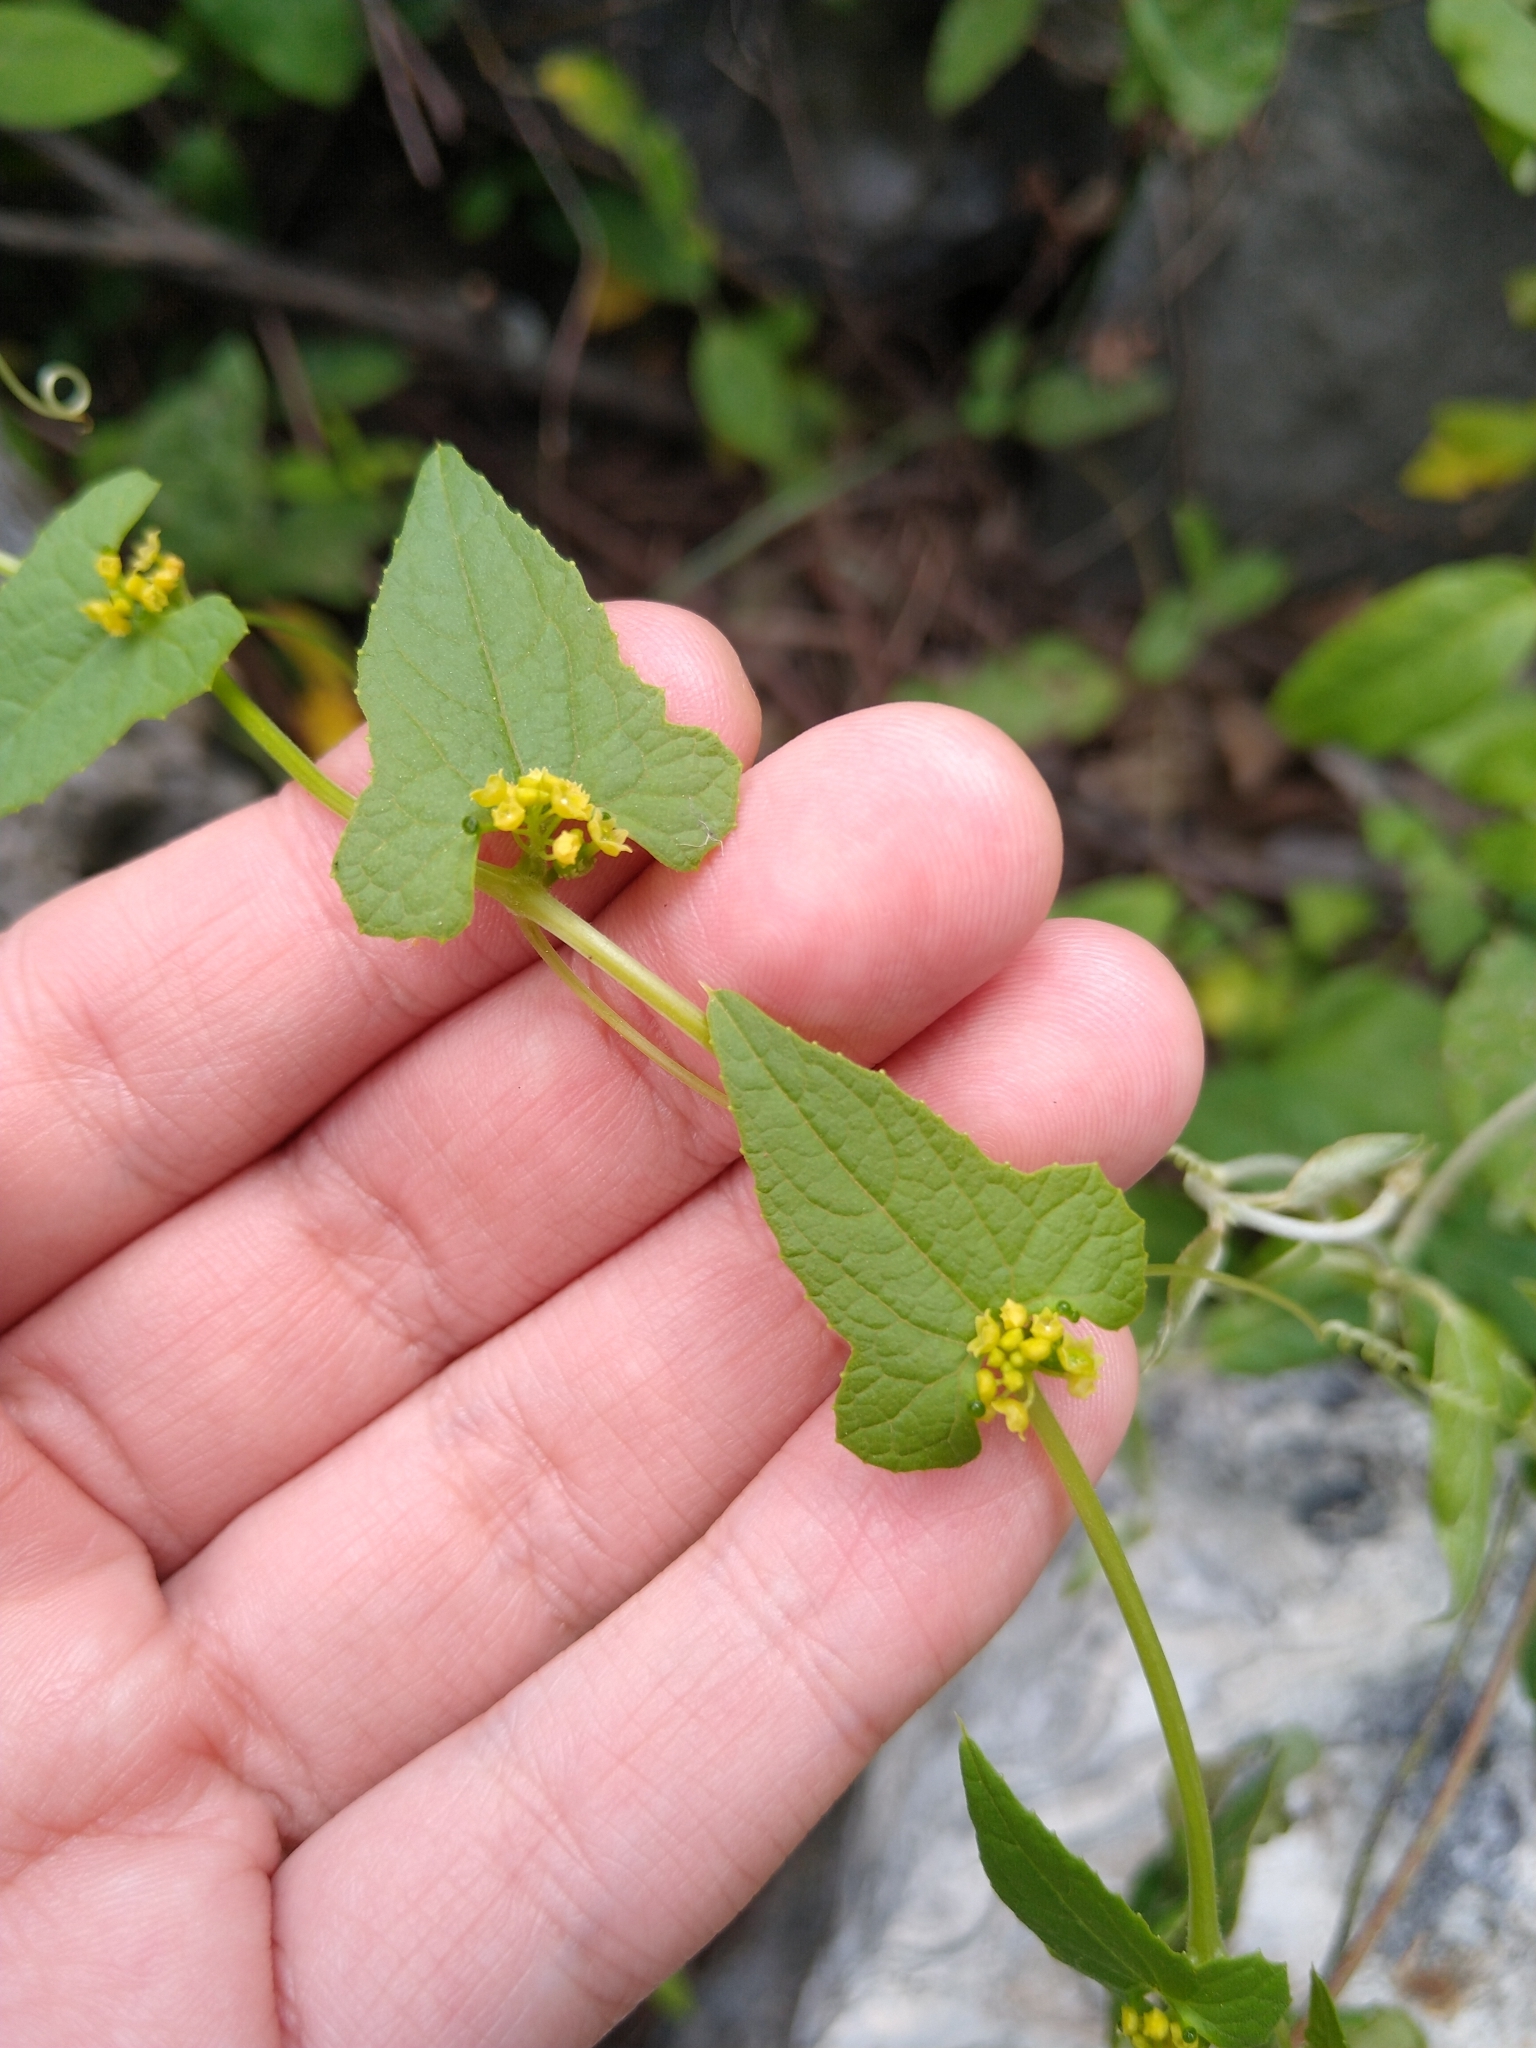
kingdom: Plantae
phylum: Tracheophyta
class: Magnoliopsida
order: Cucurbitales
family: Cucurbitaceae
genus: Cyclanthera
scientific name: Cyclanthera hastata
